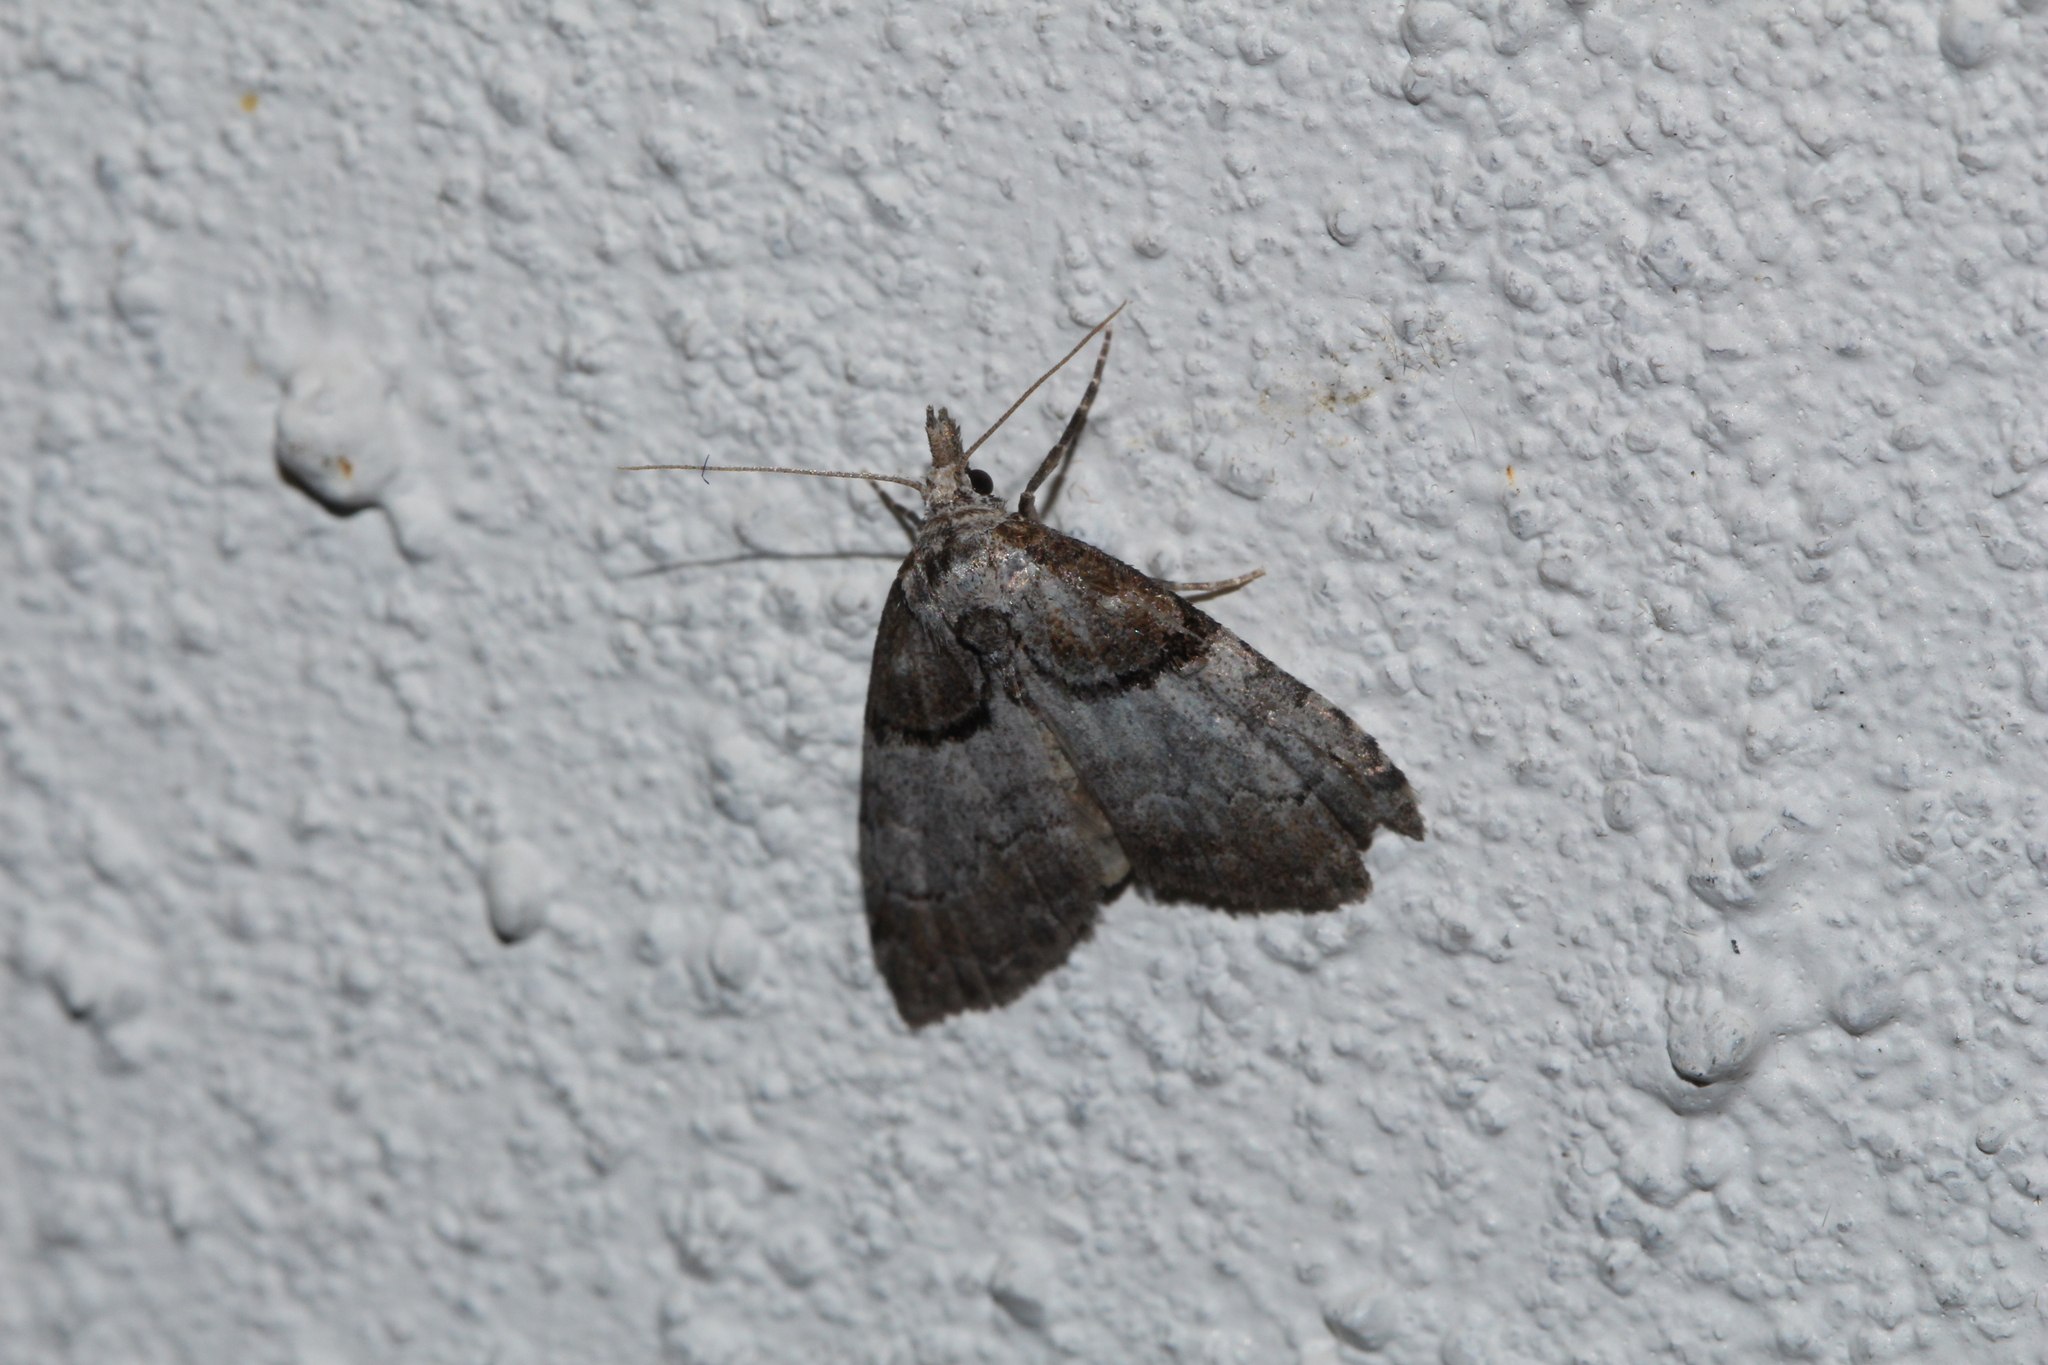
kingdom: Animalia
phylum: Arthropoda
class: Insecta
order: Lepidoptera
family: Nolidae
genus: Nola
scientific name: Nola cucullatella
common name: Short-cloaked moth
